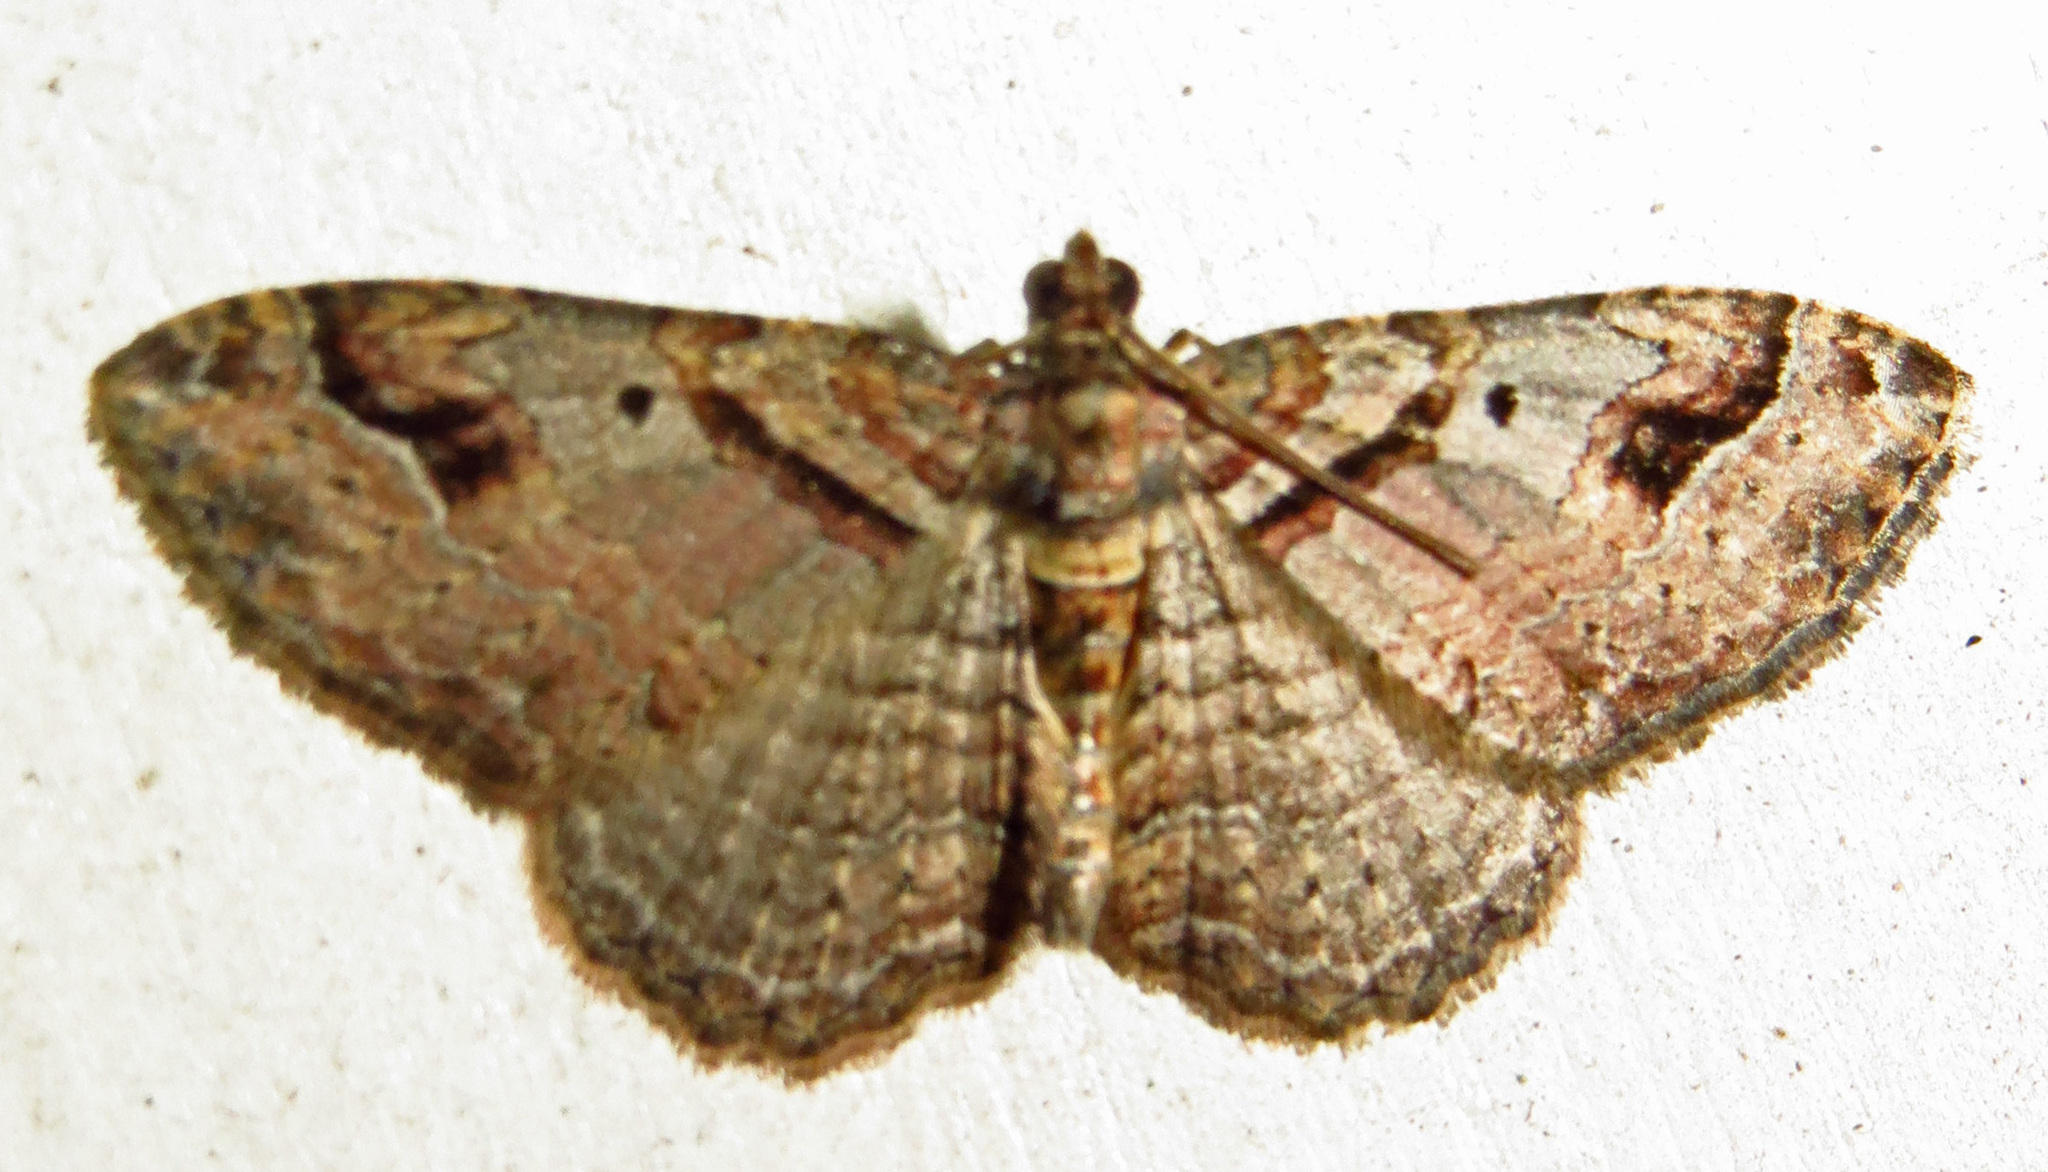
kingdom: Animalia
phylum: Arthropoda
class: Insecta
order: Lepidoptera
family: Geometridae
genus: Costaconvexa
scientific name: Costaconvexa centrostrigaria
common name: Bent-line carpet
